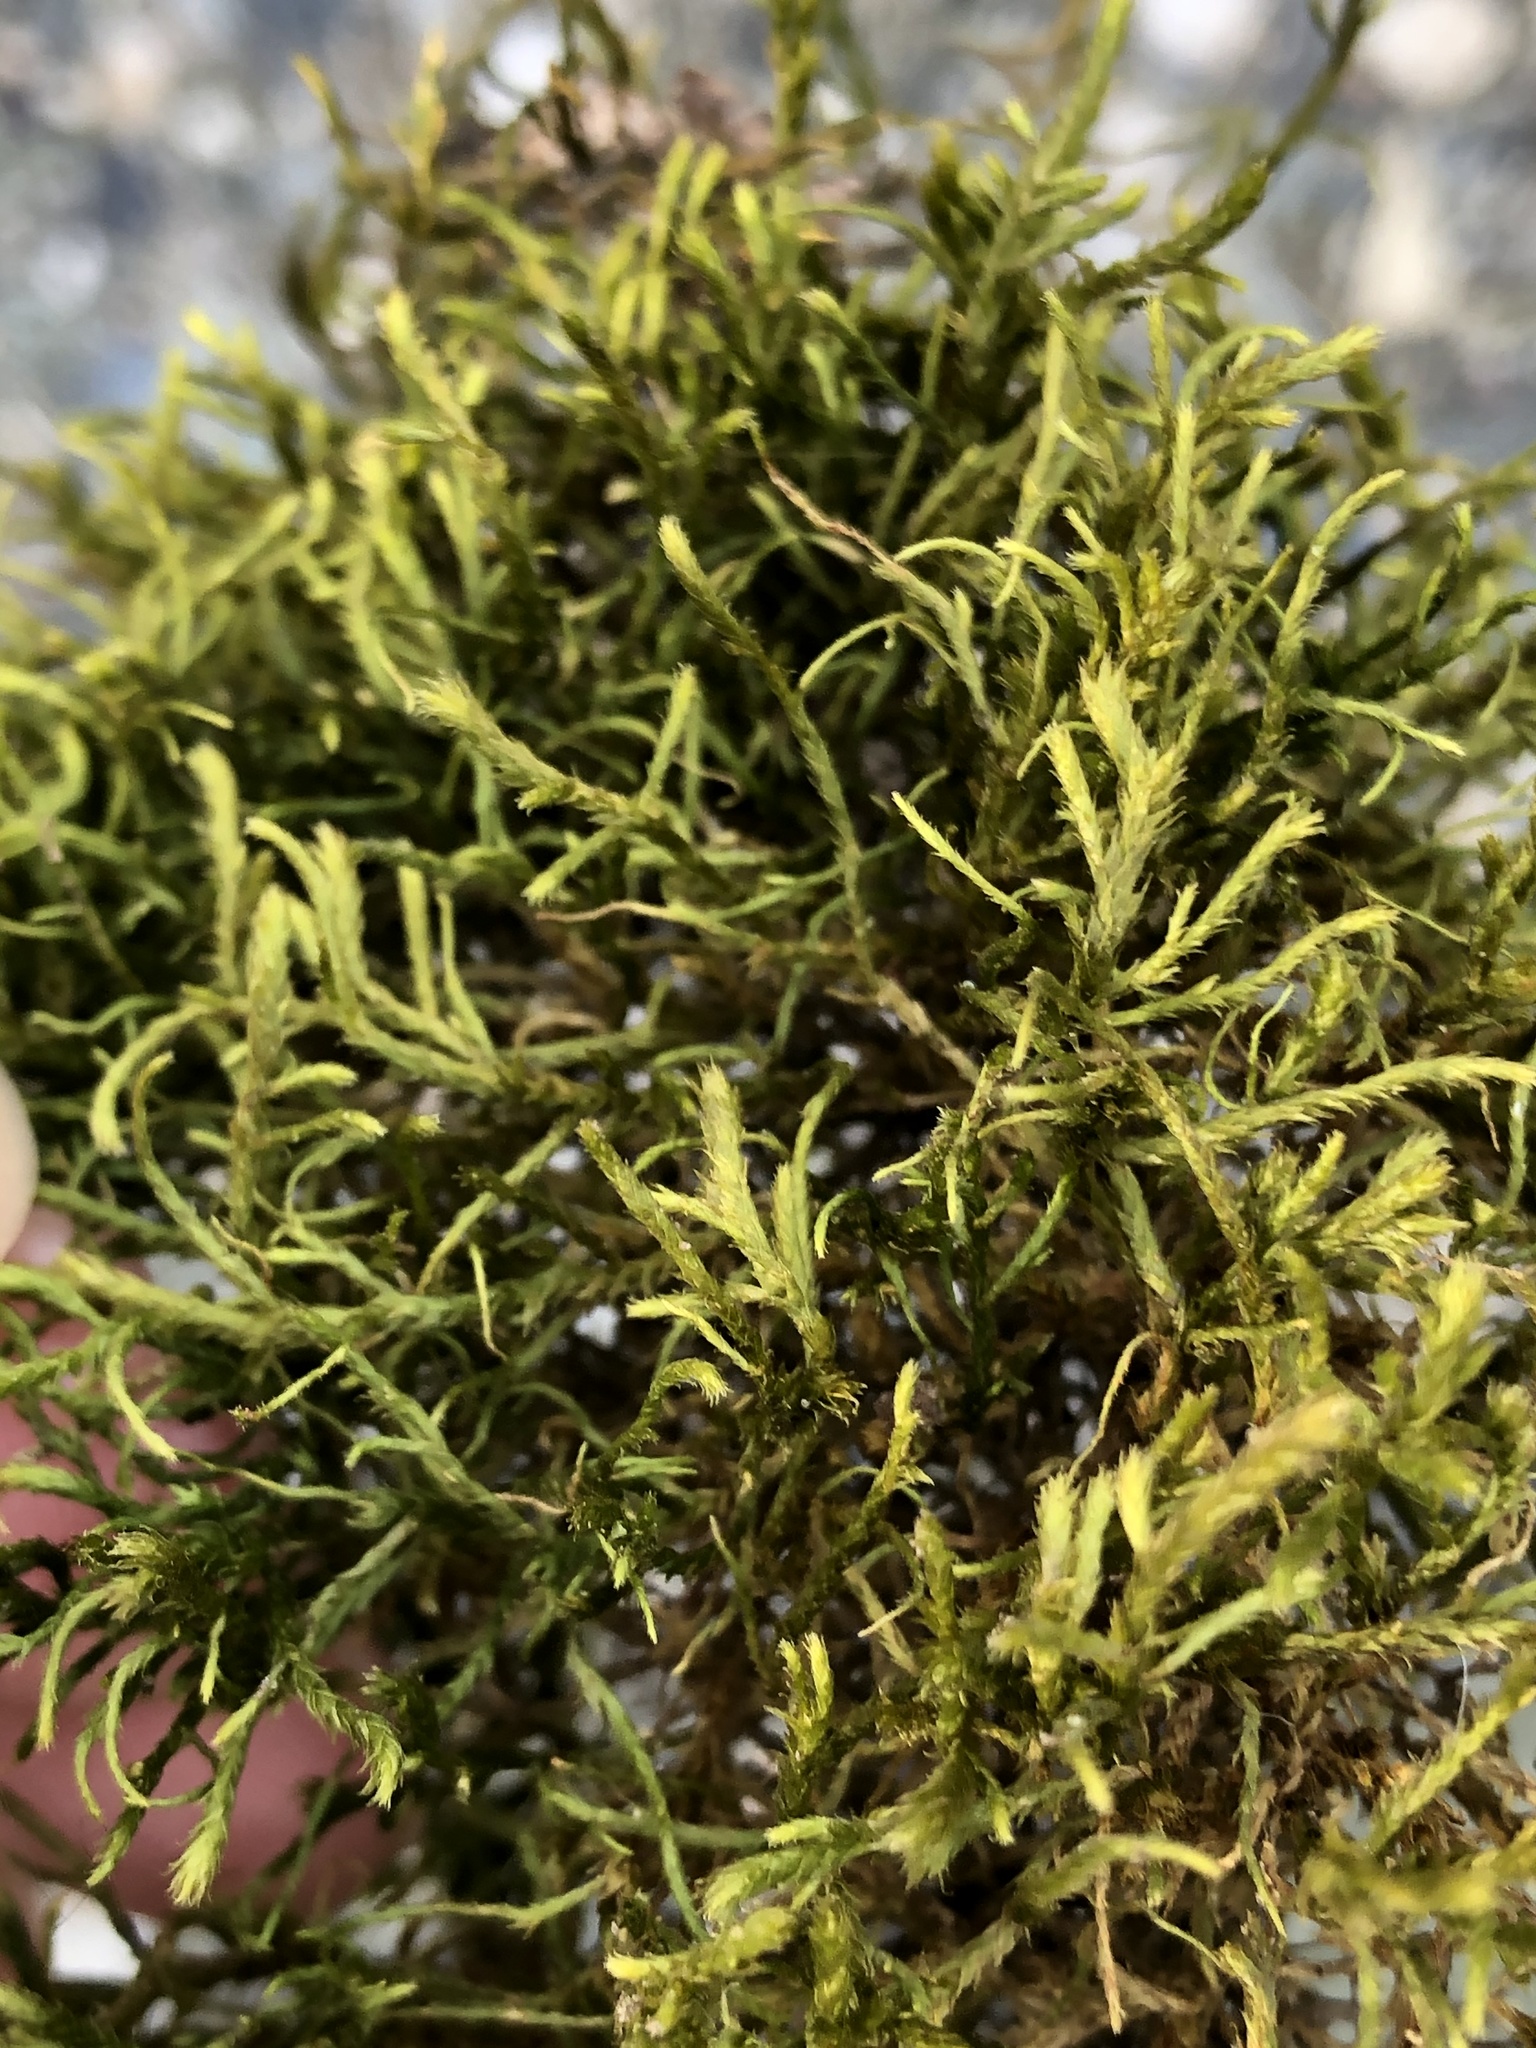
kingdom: Plantae
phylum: Bryophyta
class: Bryopsida
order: Hypnales
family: Antitrichiaceae
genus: Antitrichia
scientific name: Antitrichia curtipendula
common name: Pendulous wing-moss
